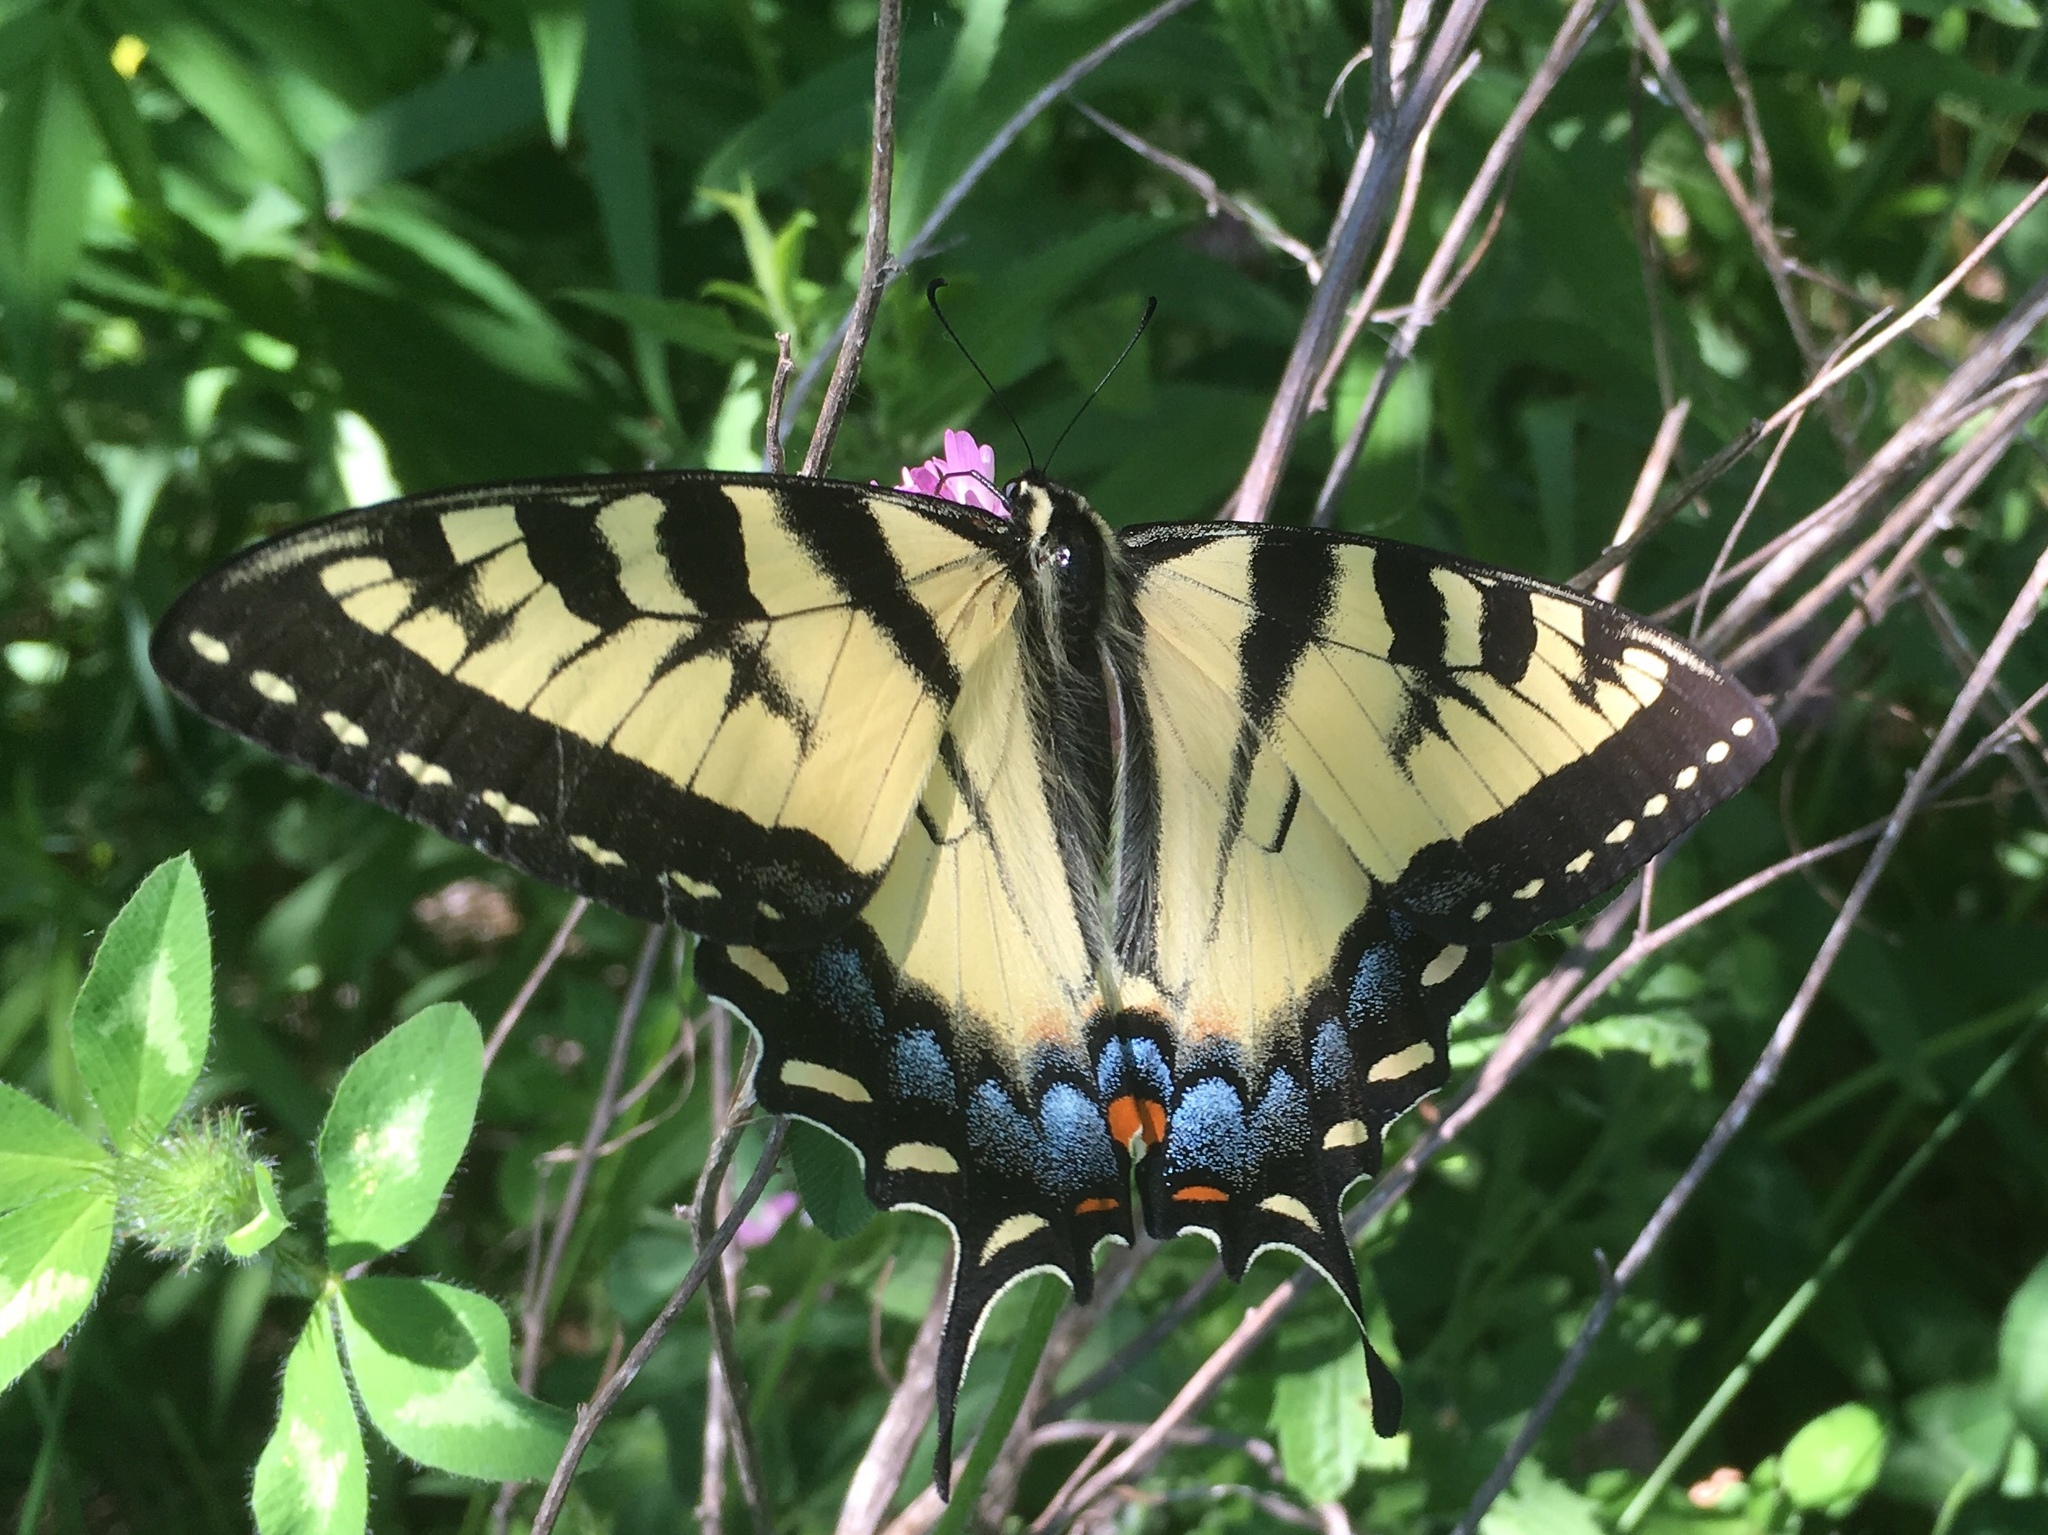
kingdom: Animalia
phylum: Arthropoda
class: Insecta
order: Lepidoptera
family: Papilionidae
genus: Papilio
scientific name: Papilio glaucus
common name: Tiger swallowtail
